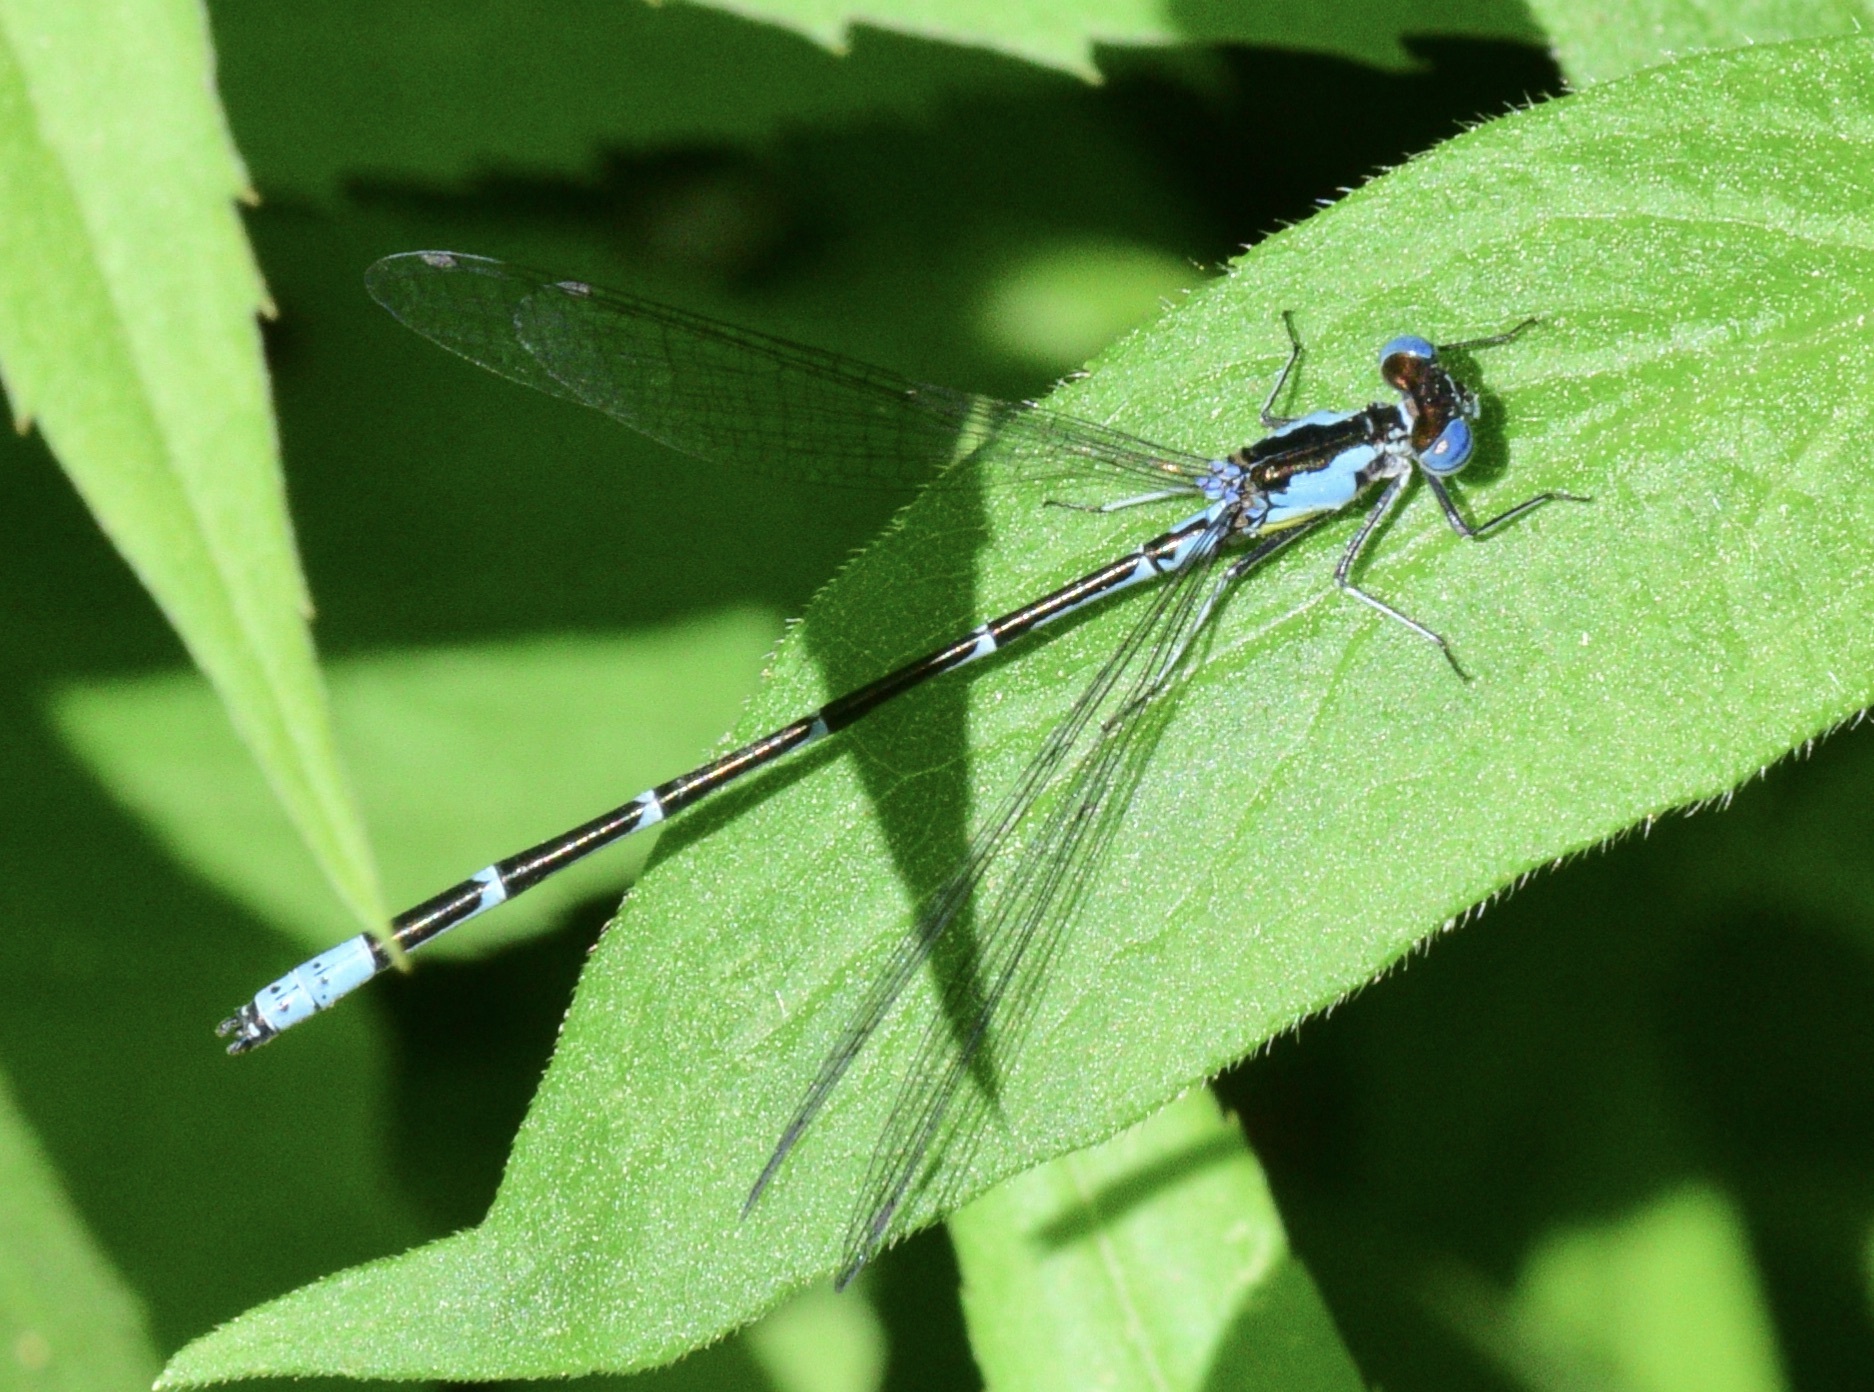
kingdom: Animalia
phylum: Arthropoda
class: Insecta
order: Odonata
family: Coenagrionidae
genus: Chromagrion
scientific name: Chromagrion conditum
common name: Aurora damsel
